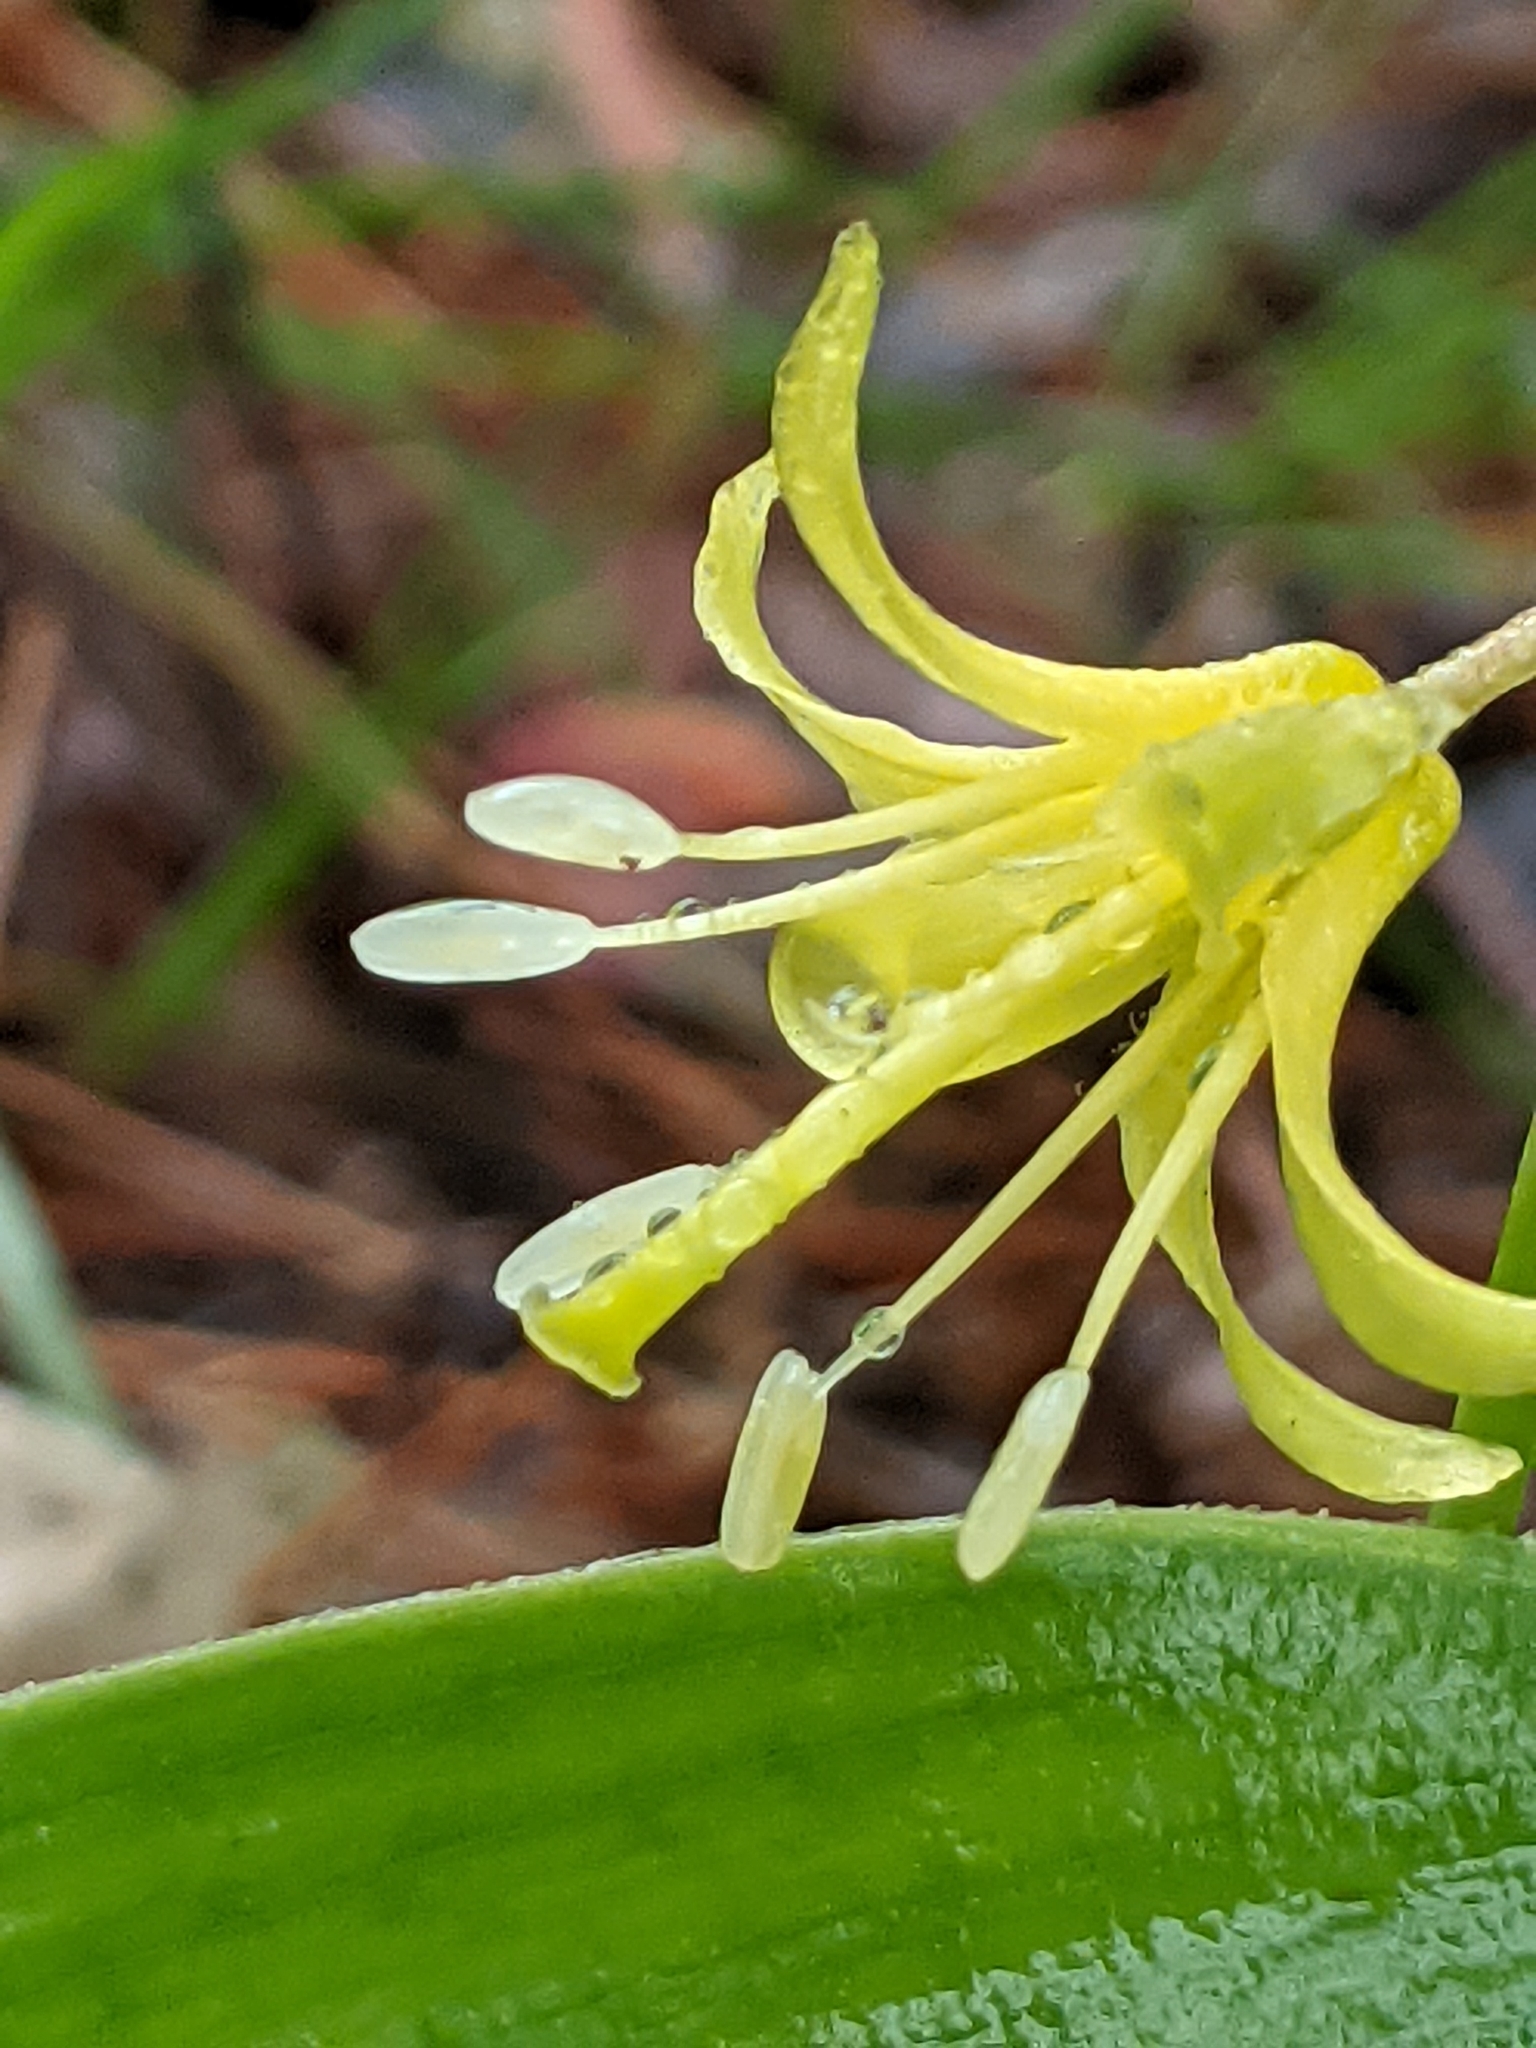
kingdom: Plantae
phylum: Tracheophyta
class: Liliopsida
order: Liliales
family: Liliaceae
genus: Clintonia
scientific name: Clintonia borealis
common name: Yellow clintonia
